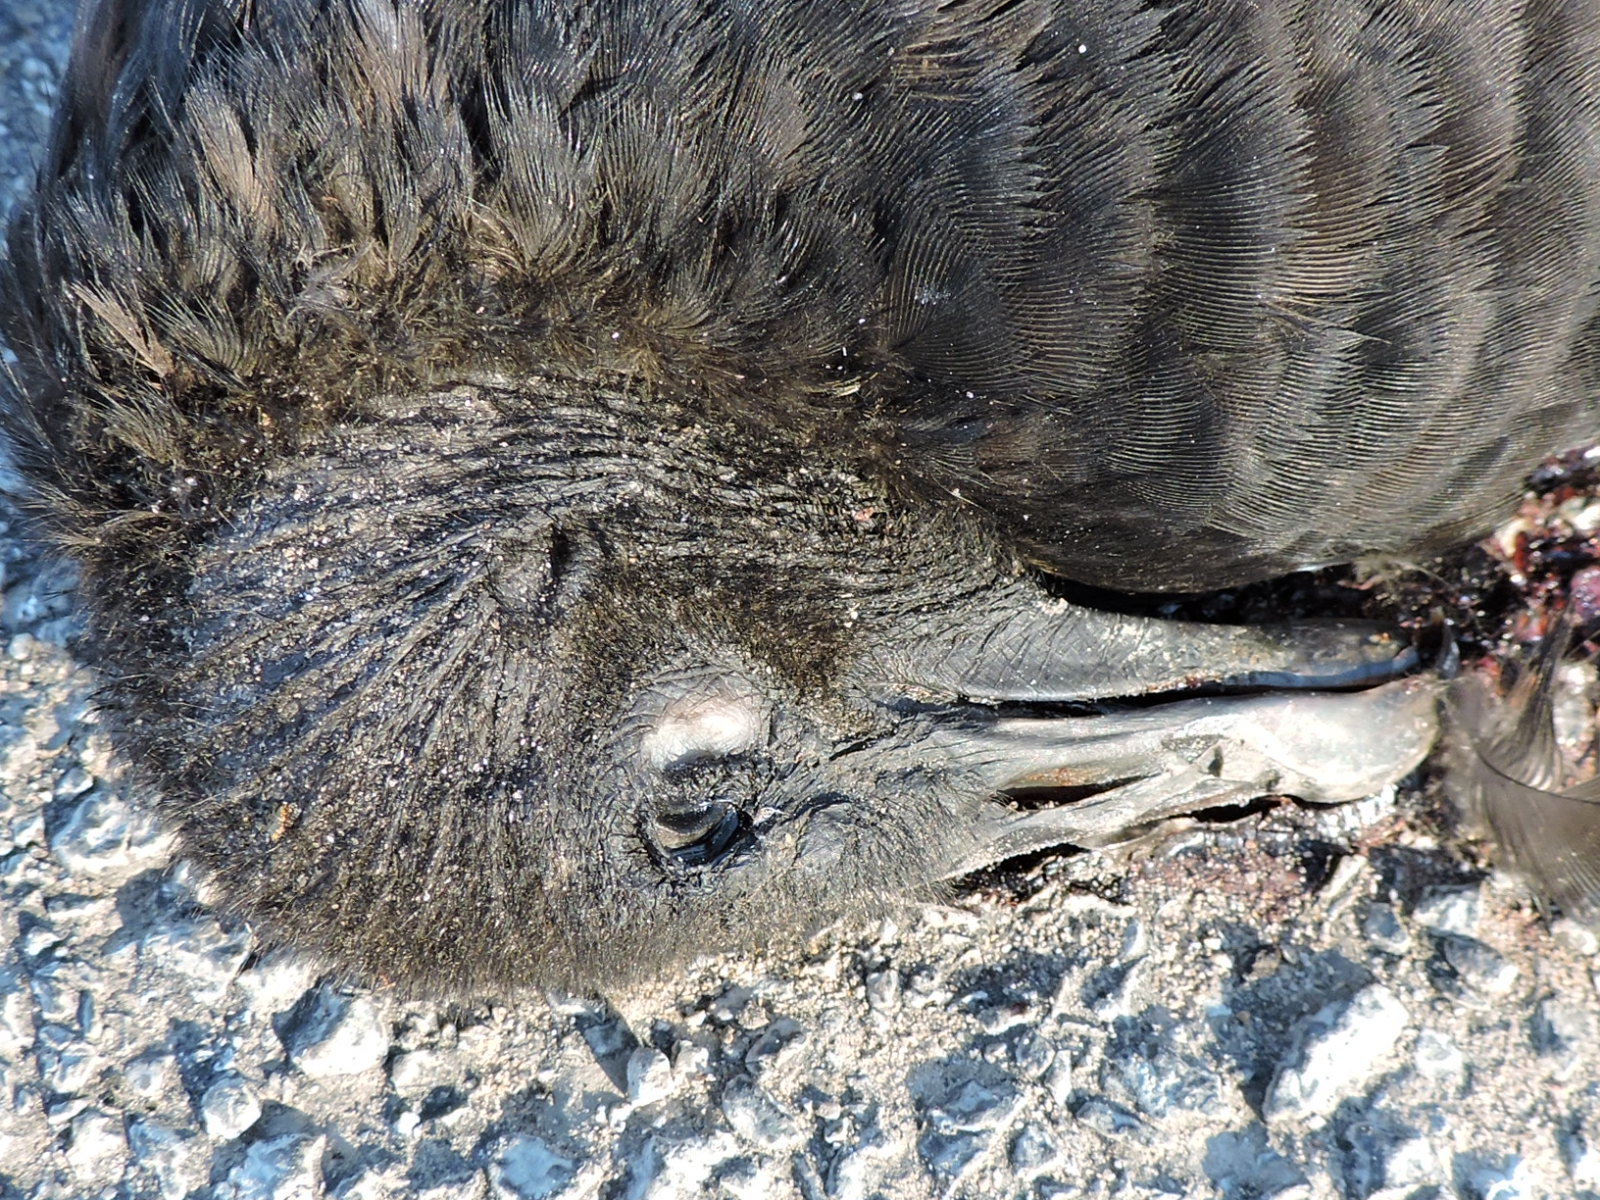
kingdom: Animalia
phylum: Chordata
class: Aves
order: Accipitriformes
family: Cathartidae
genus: Coragyps
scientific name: Coragyps atratus
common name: Black vulture
